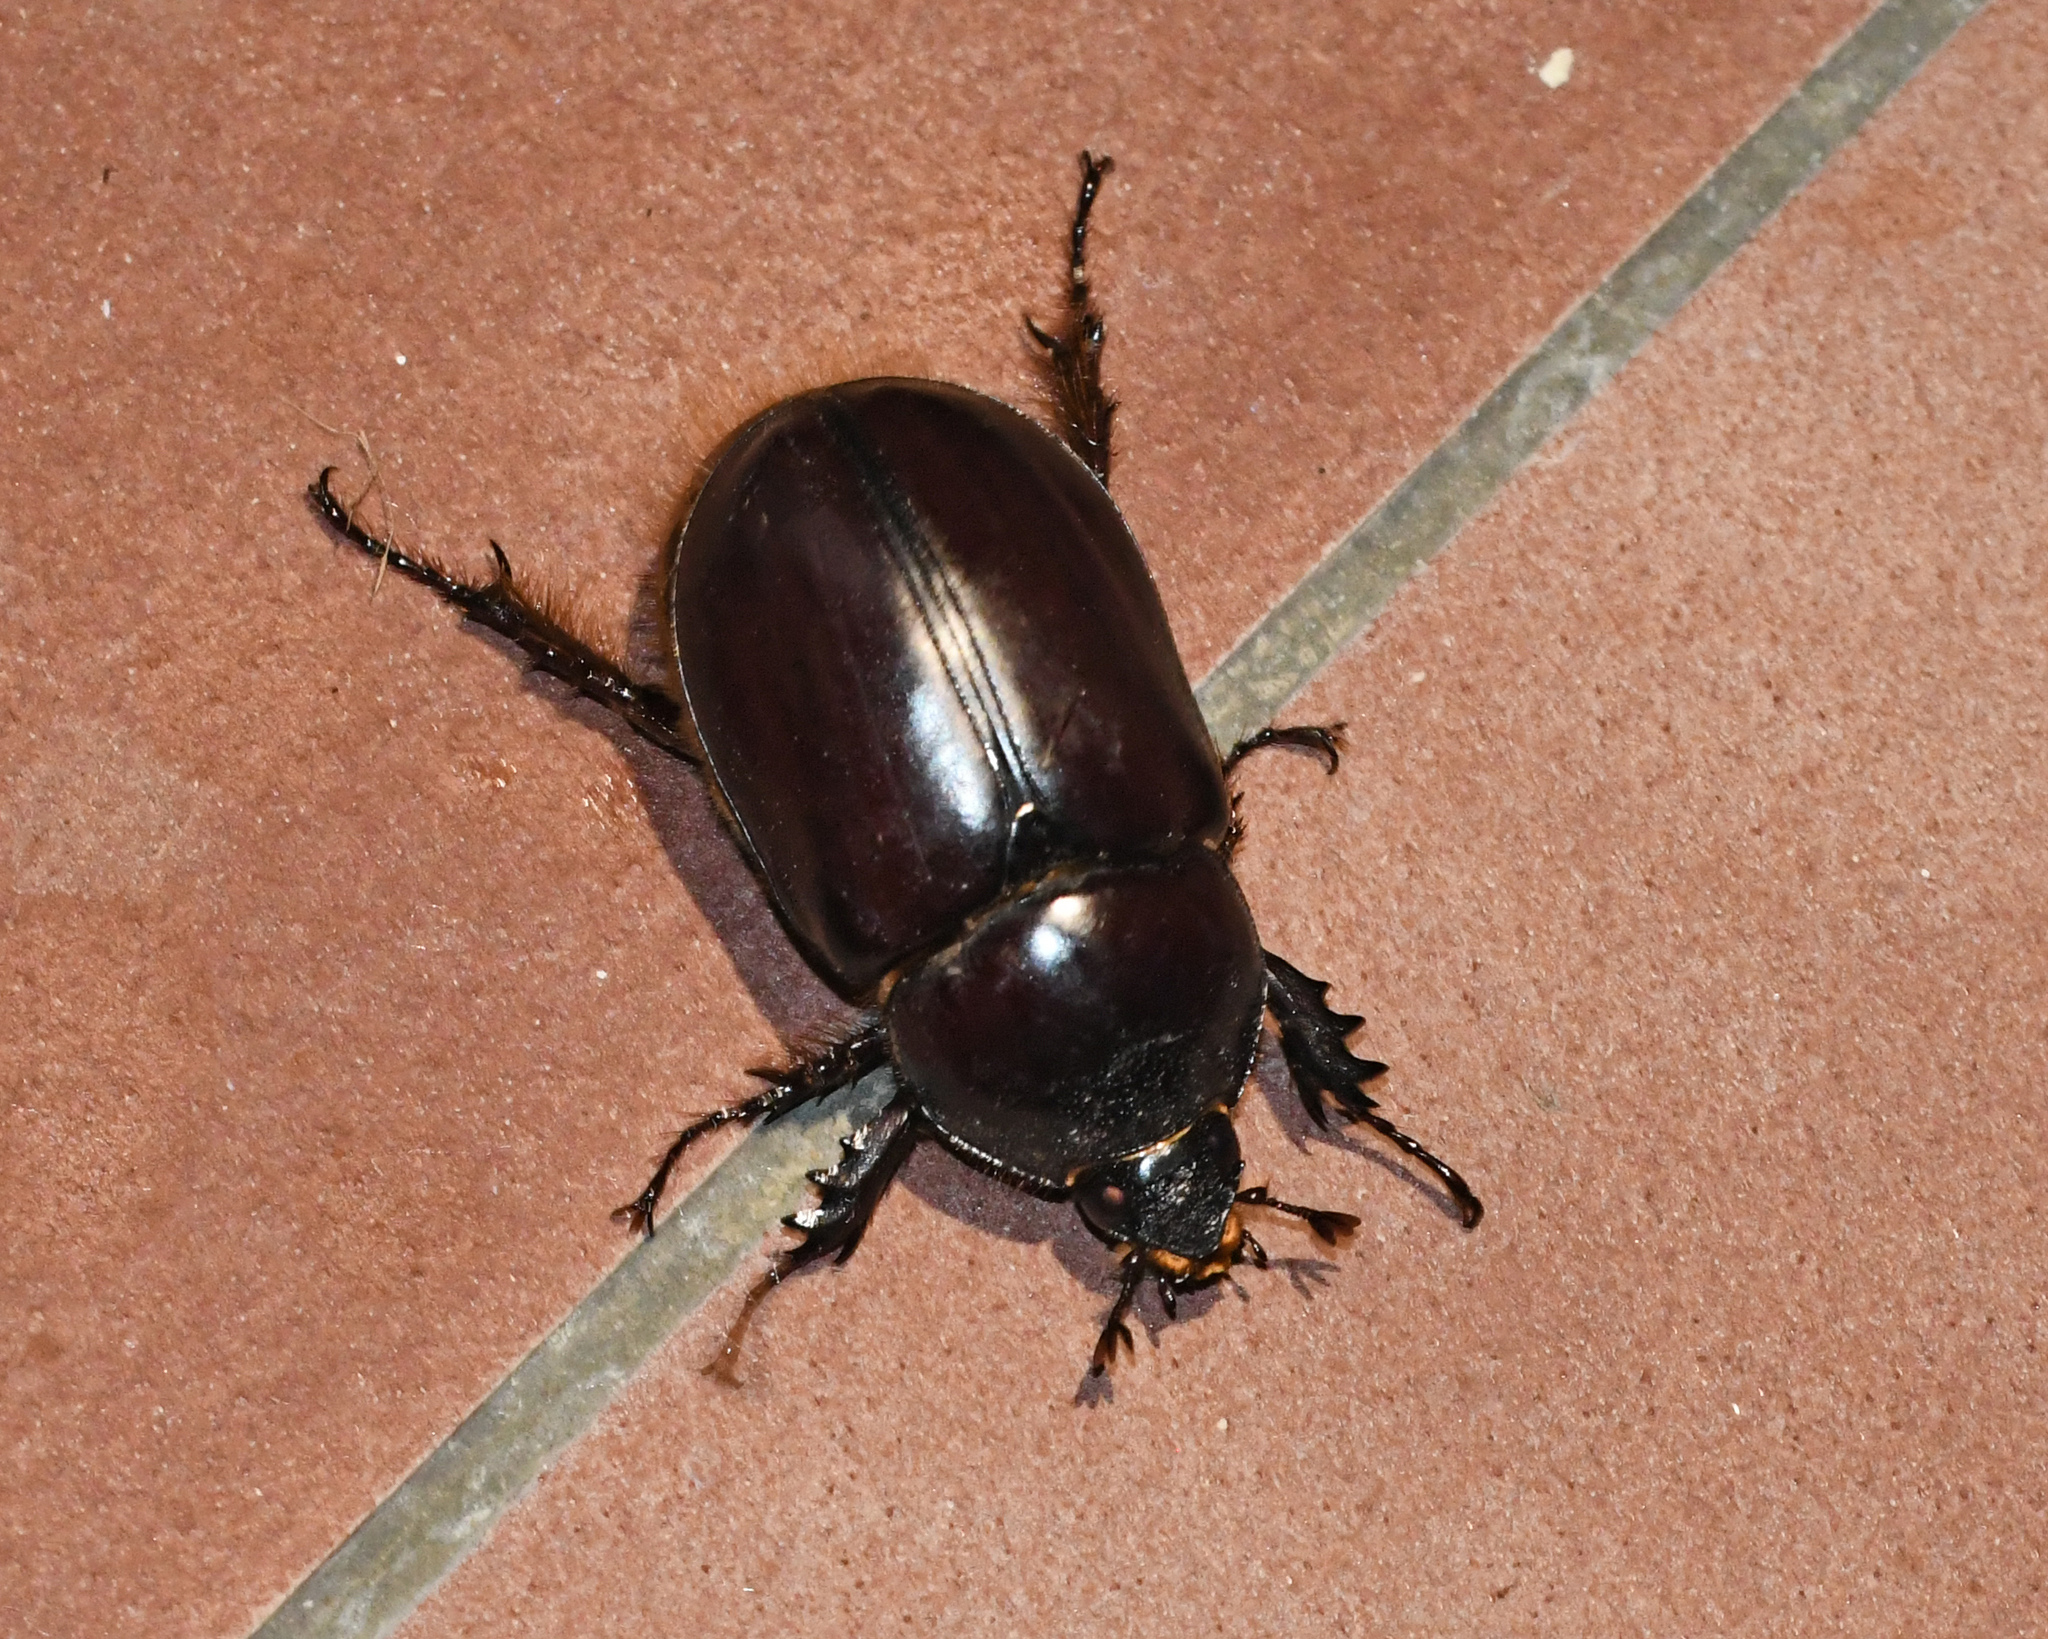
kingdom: Animalia
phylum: Arthropoda
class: Insecta
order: Coleoptera
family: Scarabaeidae
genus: Strategus
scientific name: Strategus aenobarbus
